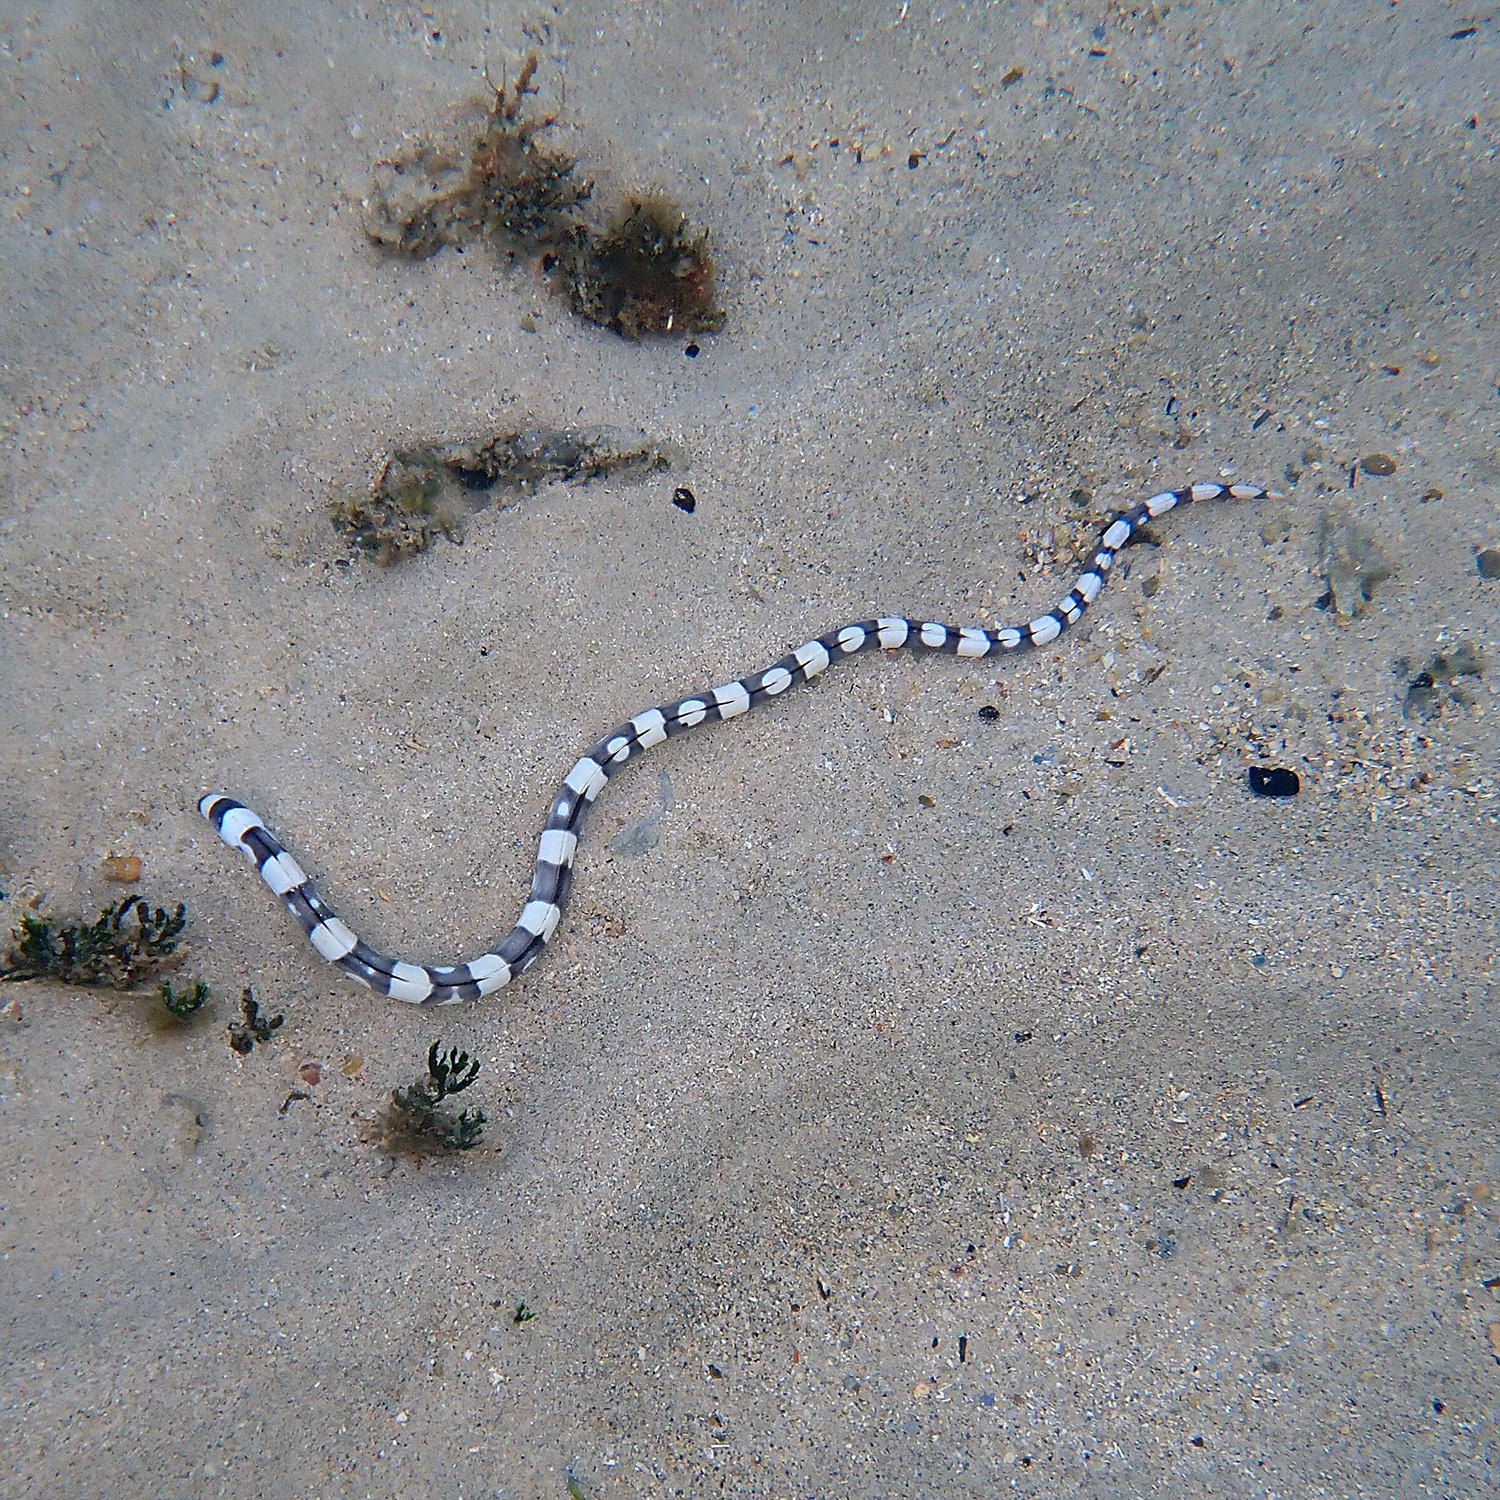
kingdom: Animalia
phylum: Chordata
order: Anguilliformes
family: Ophichthidae
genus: Leiuranus
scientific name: Leiuranus versicolor
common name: Convict snake eel
